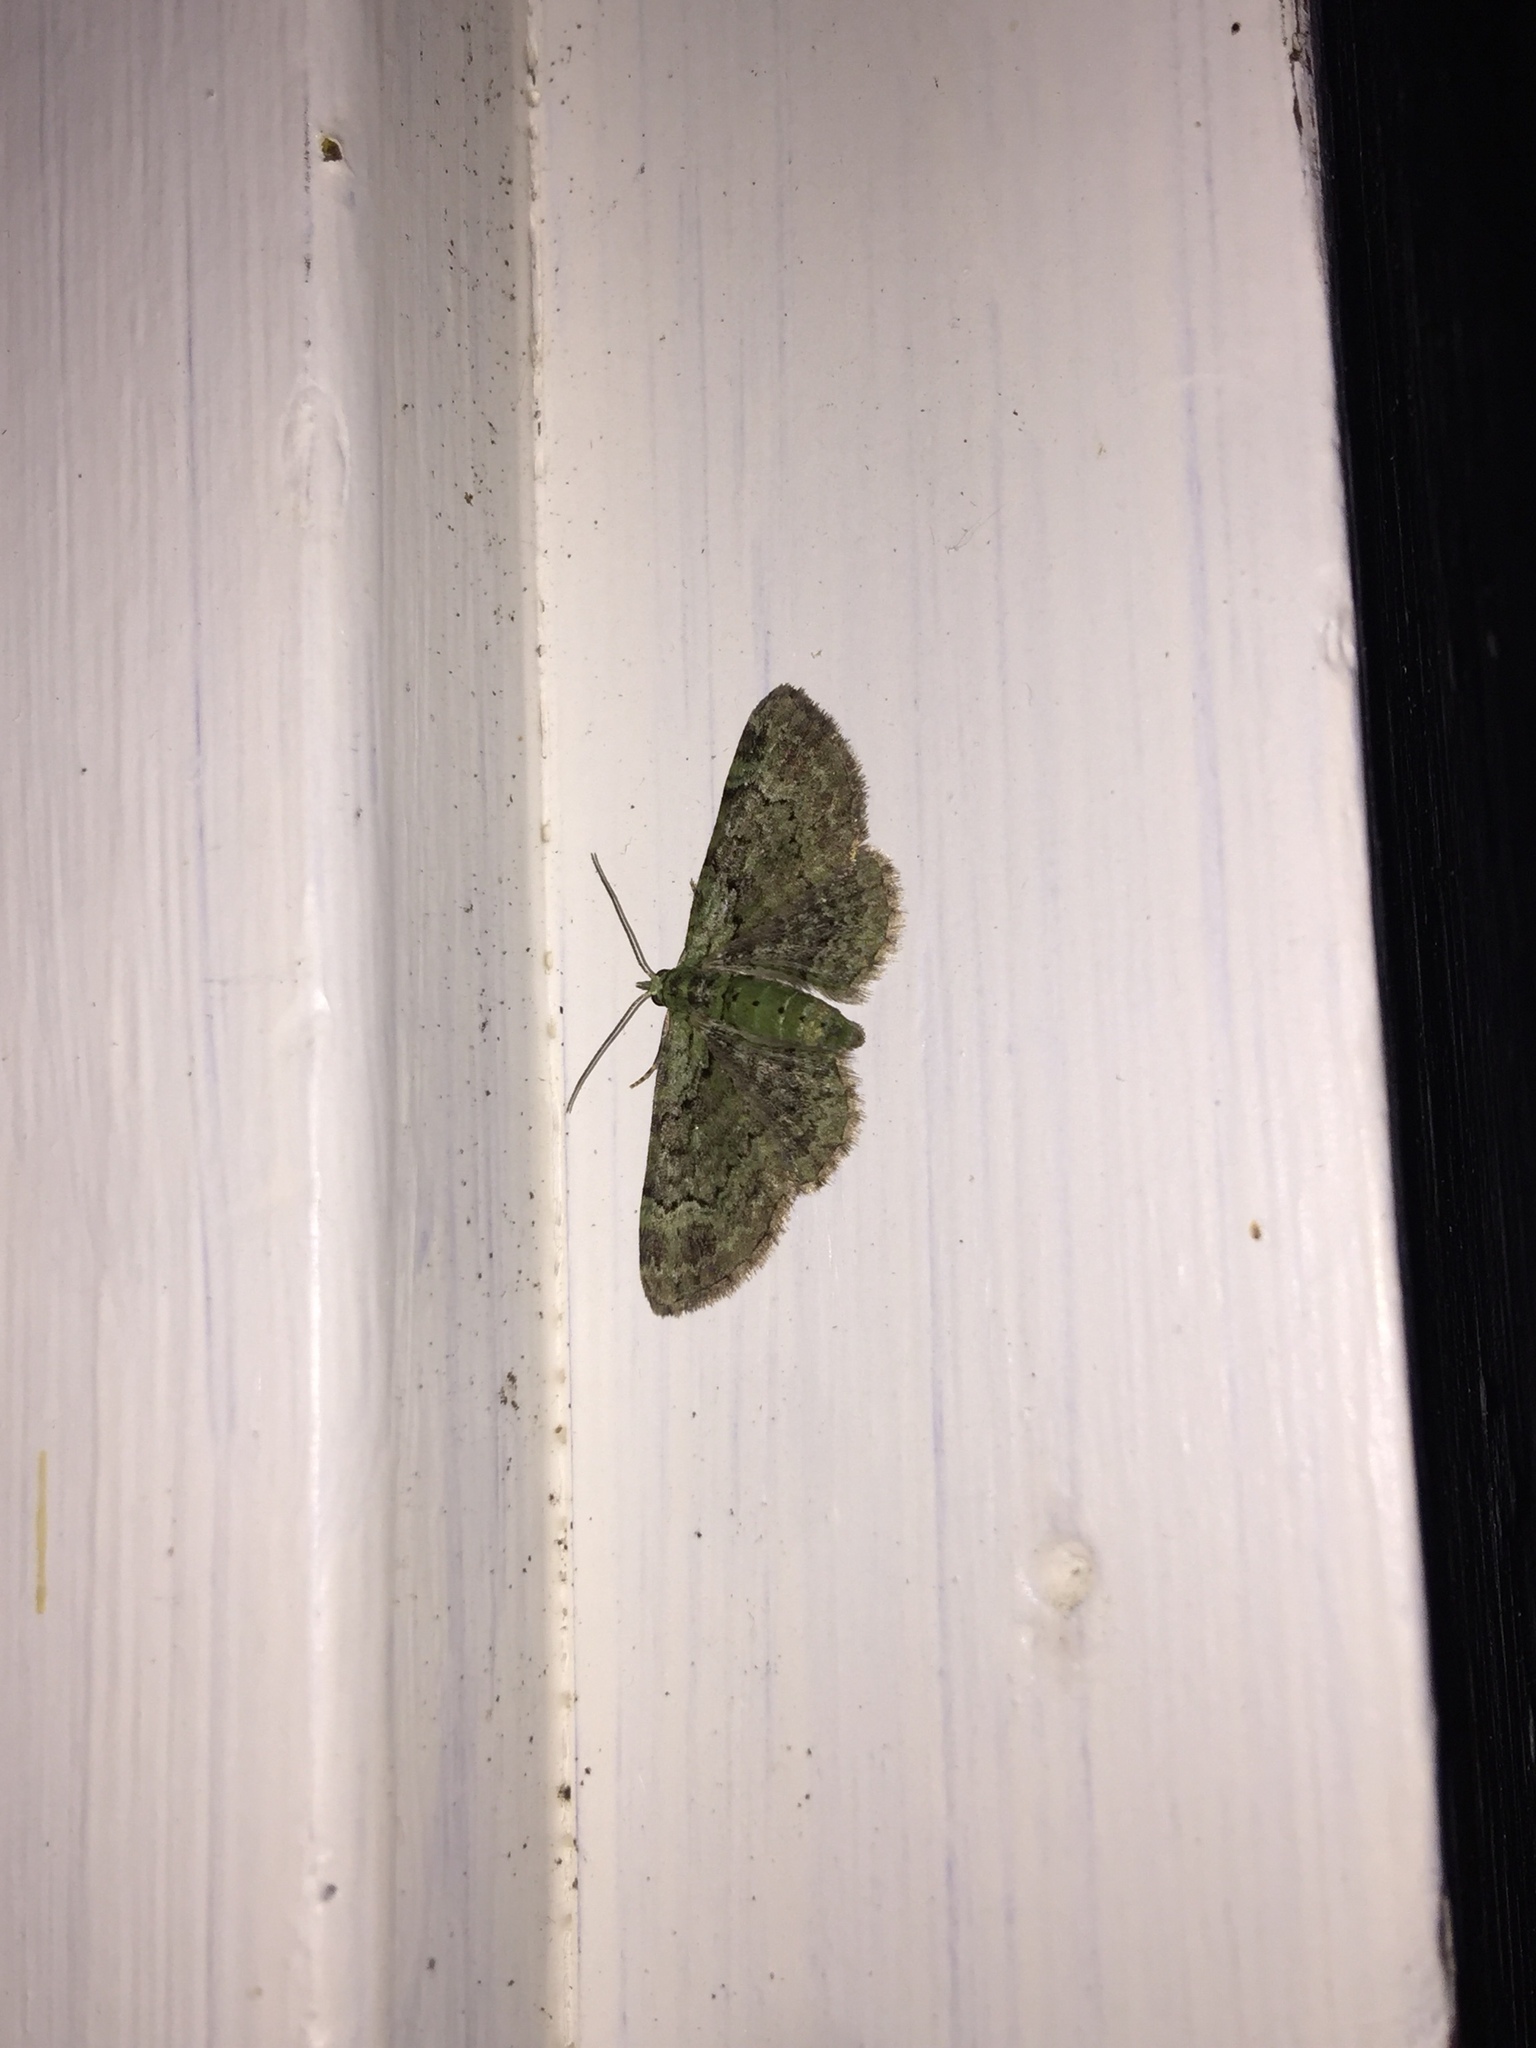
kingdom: Animalia
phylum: Arthropoda
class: Insecta
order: Lepidoptera
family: Geometridae
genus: Pasiphila
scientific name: Pasiphila rectangulata
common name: Green pug
